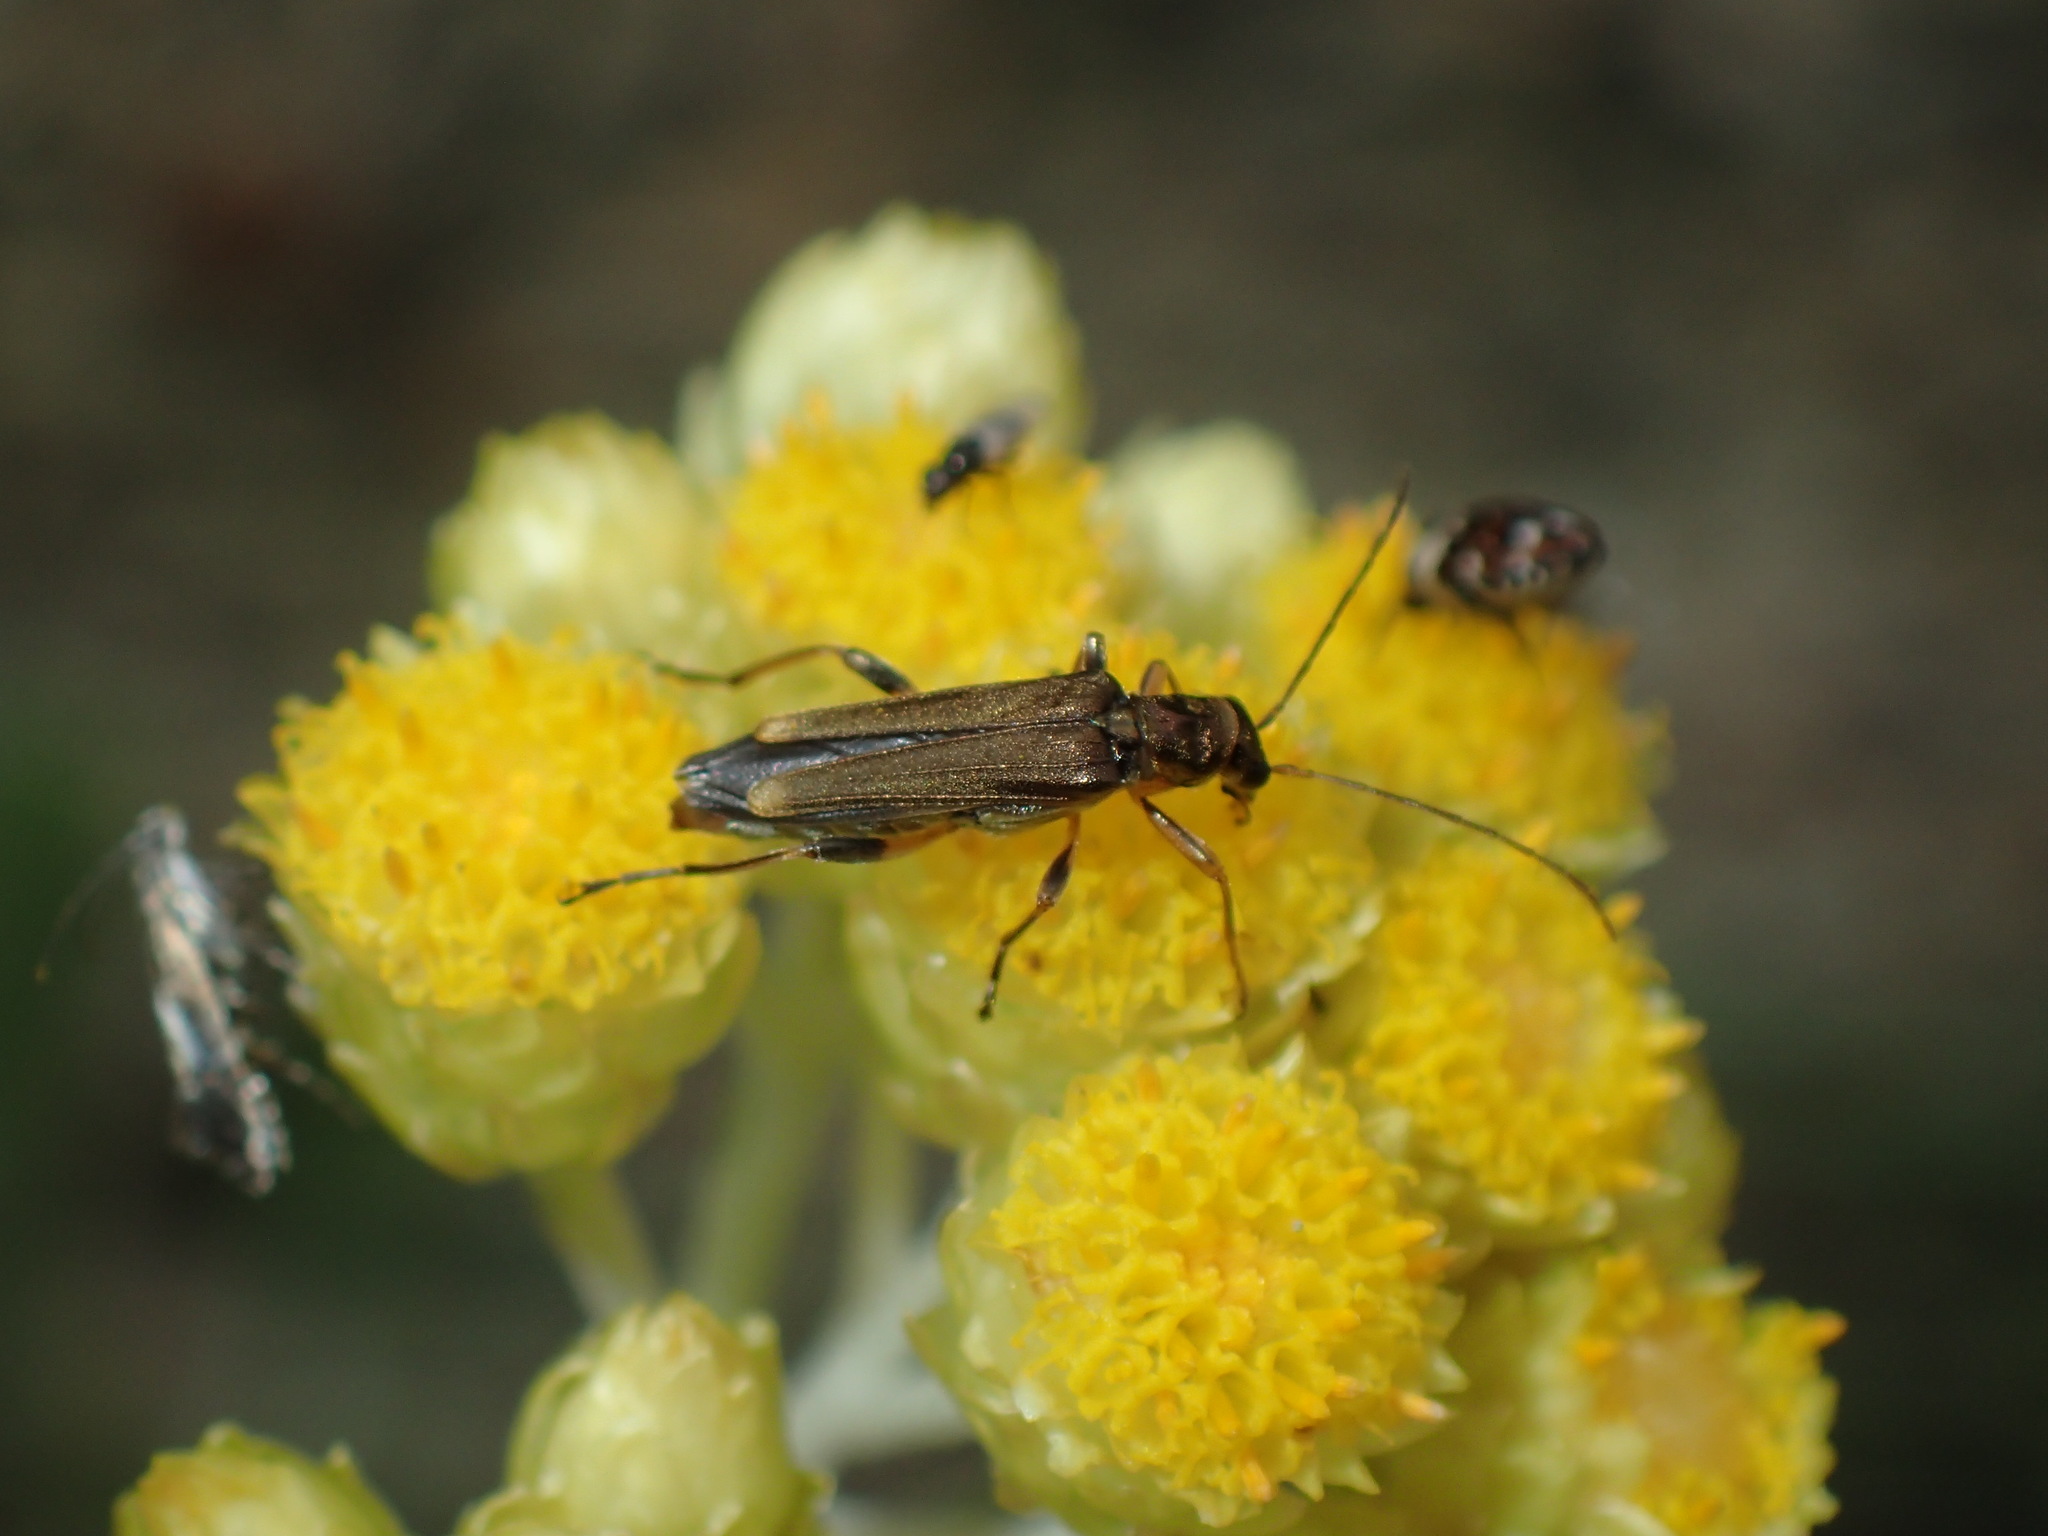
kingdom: Animalia
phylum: Arthropoda
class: Insecta
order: Coleoptera
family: Oedemeridae
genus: Oedemera
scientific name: Oedemera barbara
